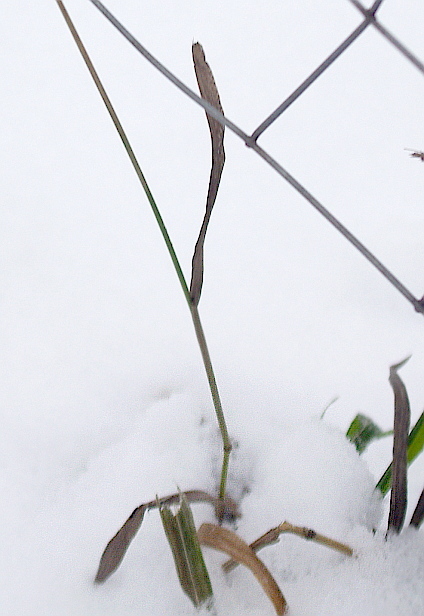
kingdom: Plantae
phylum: Tracheophyta
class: Liliopsida
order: Poales
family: Poaceae
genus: Bromus
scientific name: Bromus inermis
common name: Smooth brome
